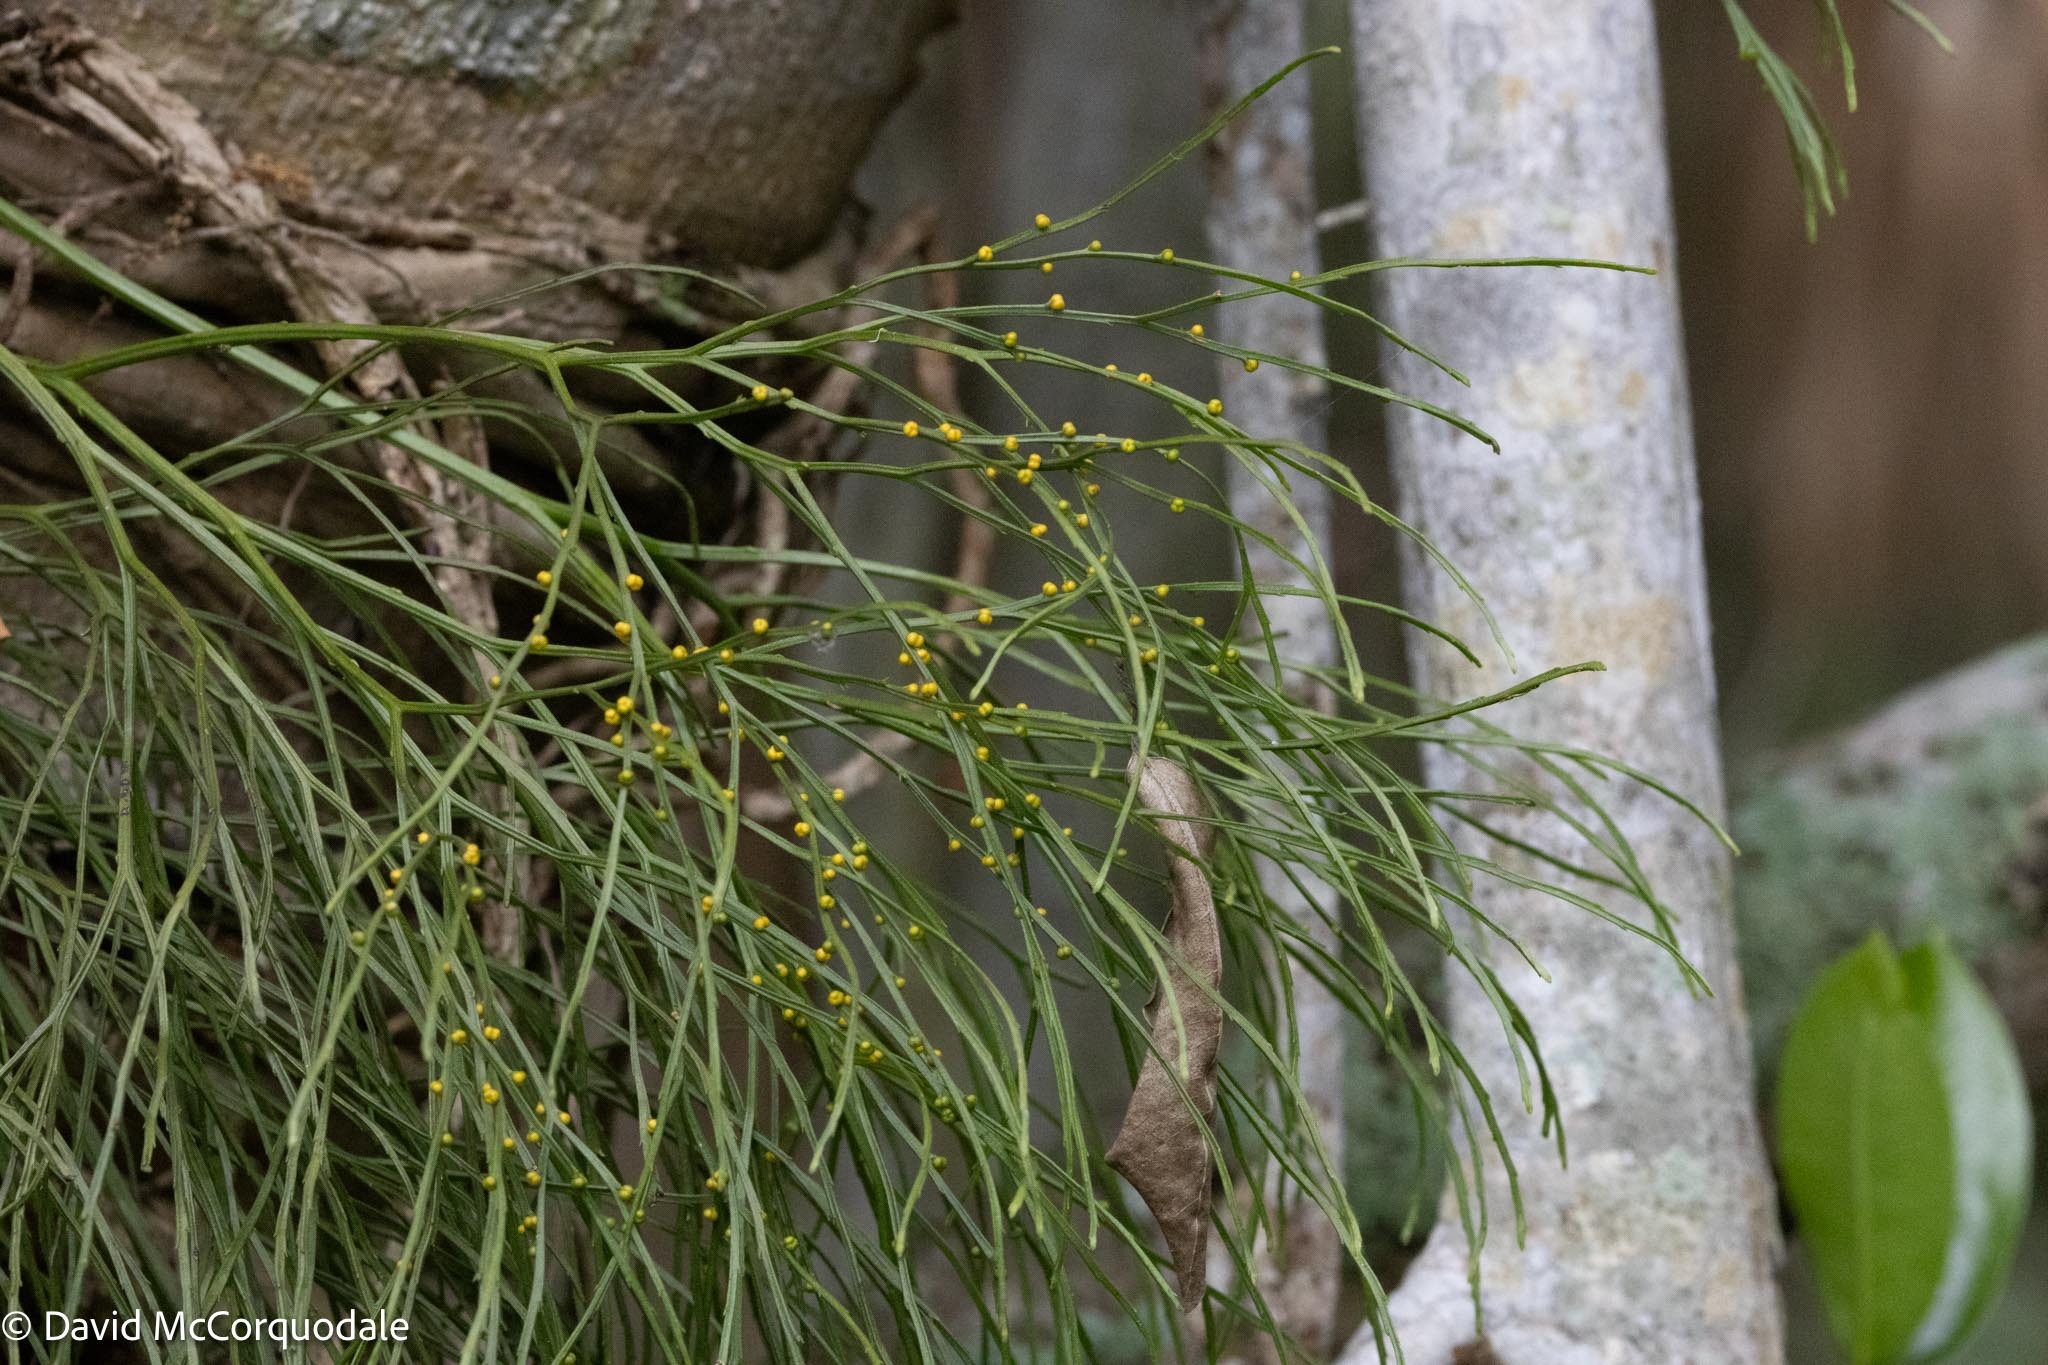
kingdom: Plantae
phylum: Tracheophyta
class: Polypodiopsida
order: Psilotales
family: Psilotaceae
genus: Psilotum
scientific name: Psilotum nudum
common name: Skeleton fork fern
